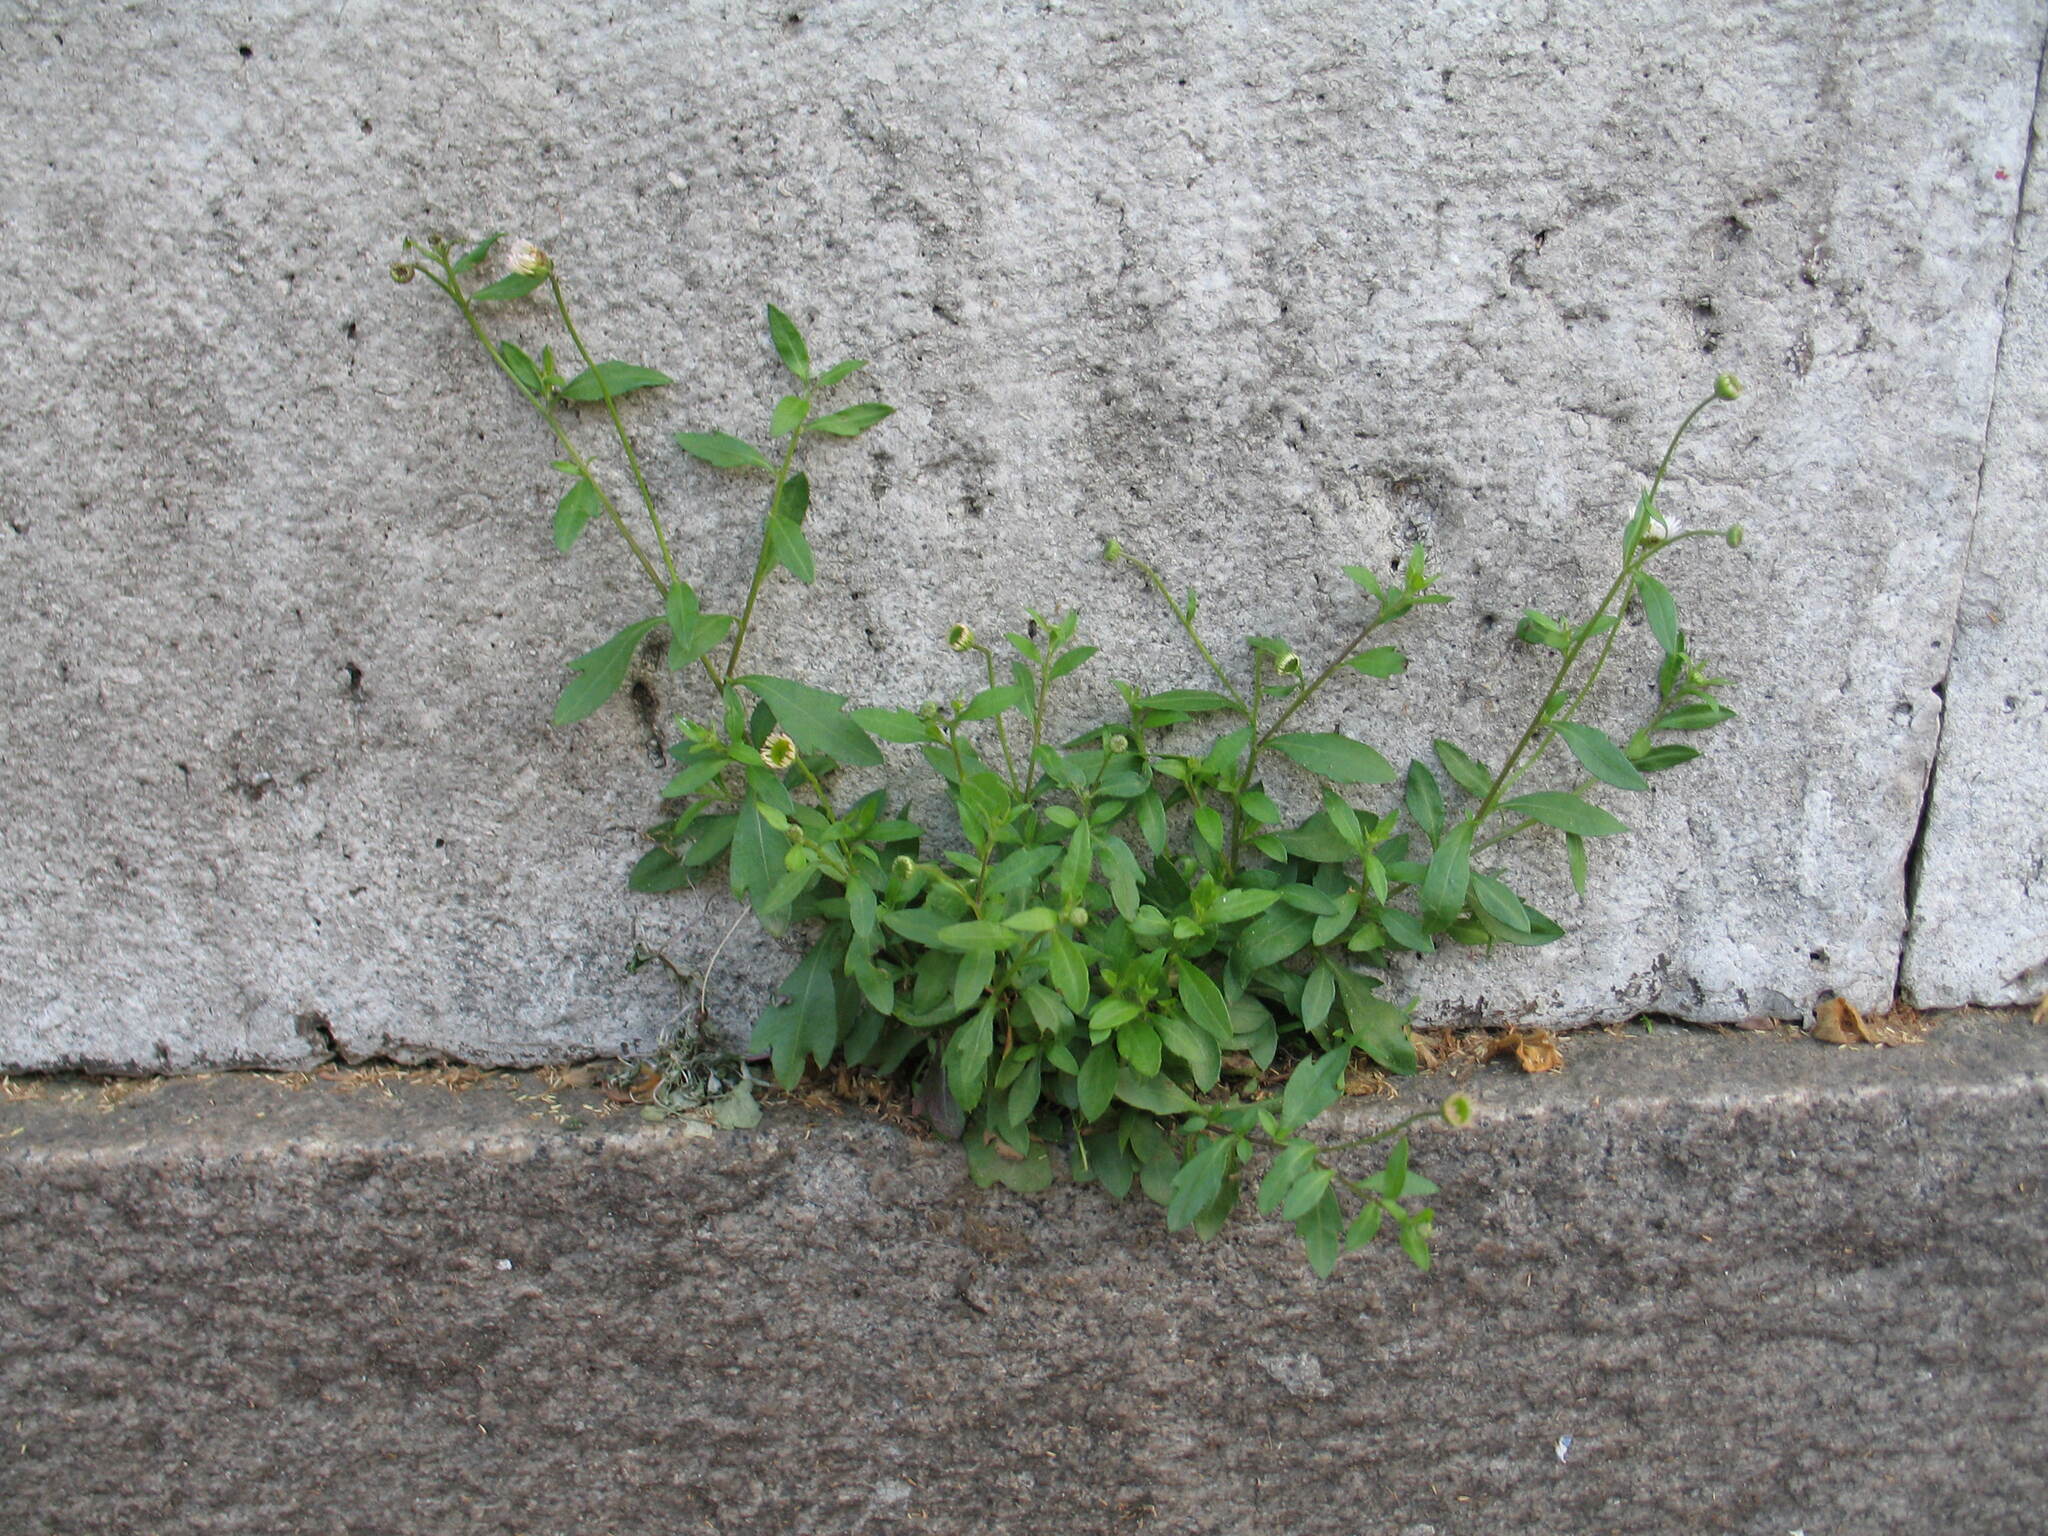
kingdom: Plantae
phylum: Tracheophyta
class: Magnoliopsida
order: Asterales
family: Asteraceae
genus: Erigeron
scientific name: Erigeron karvinskianus
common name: Mexican fleabane
